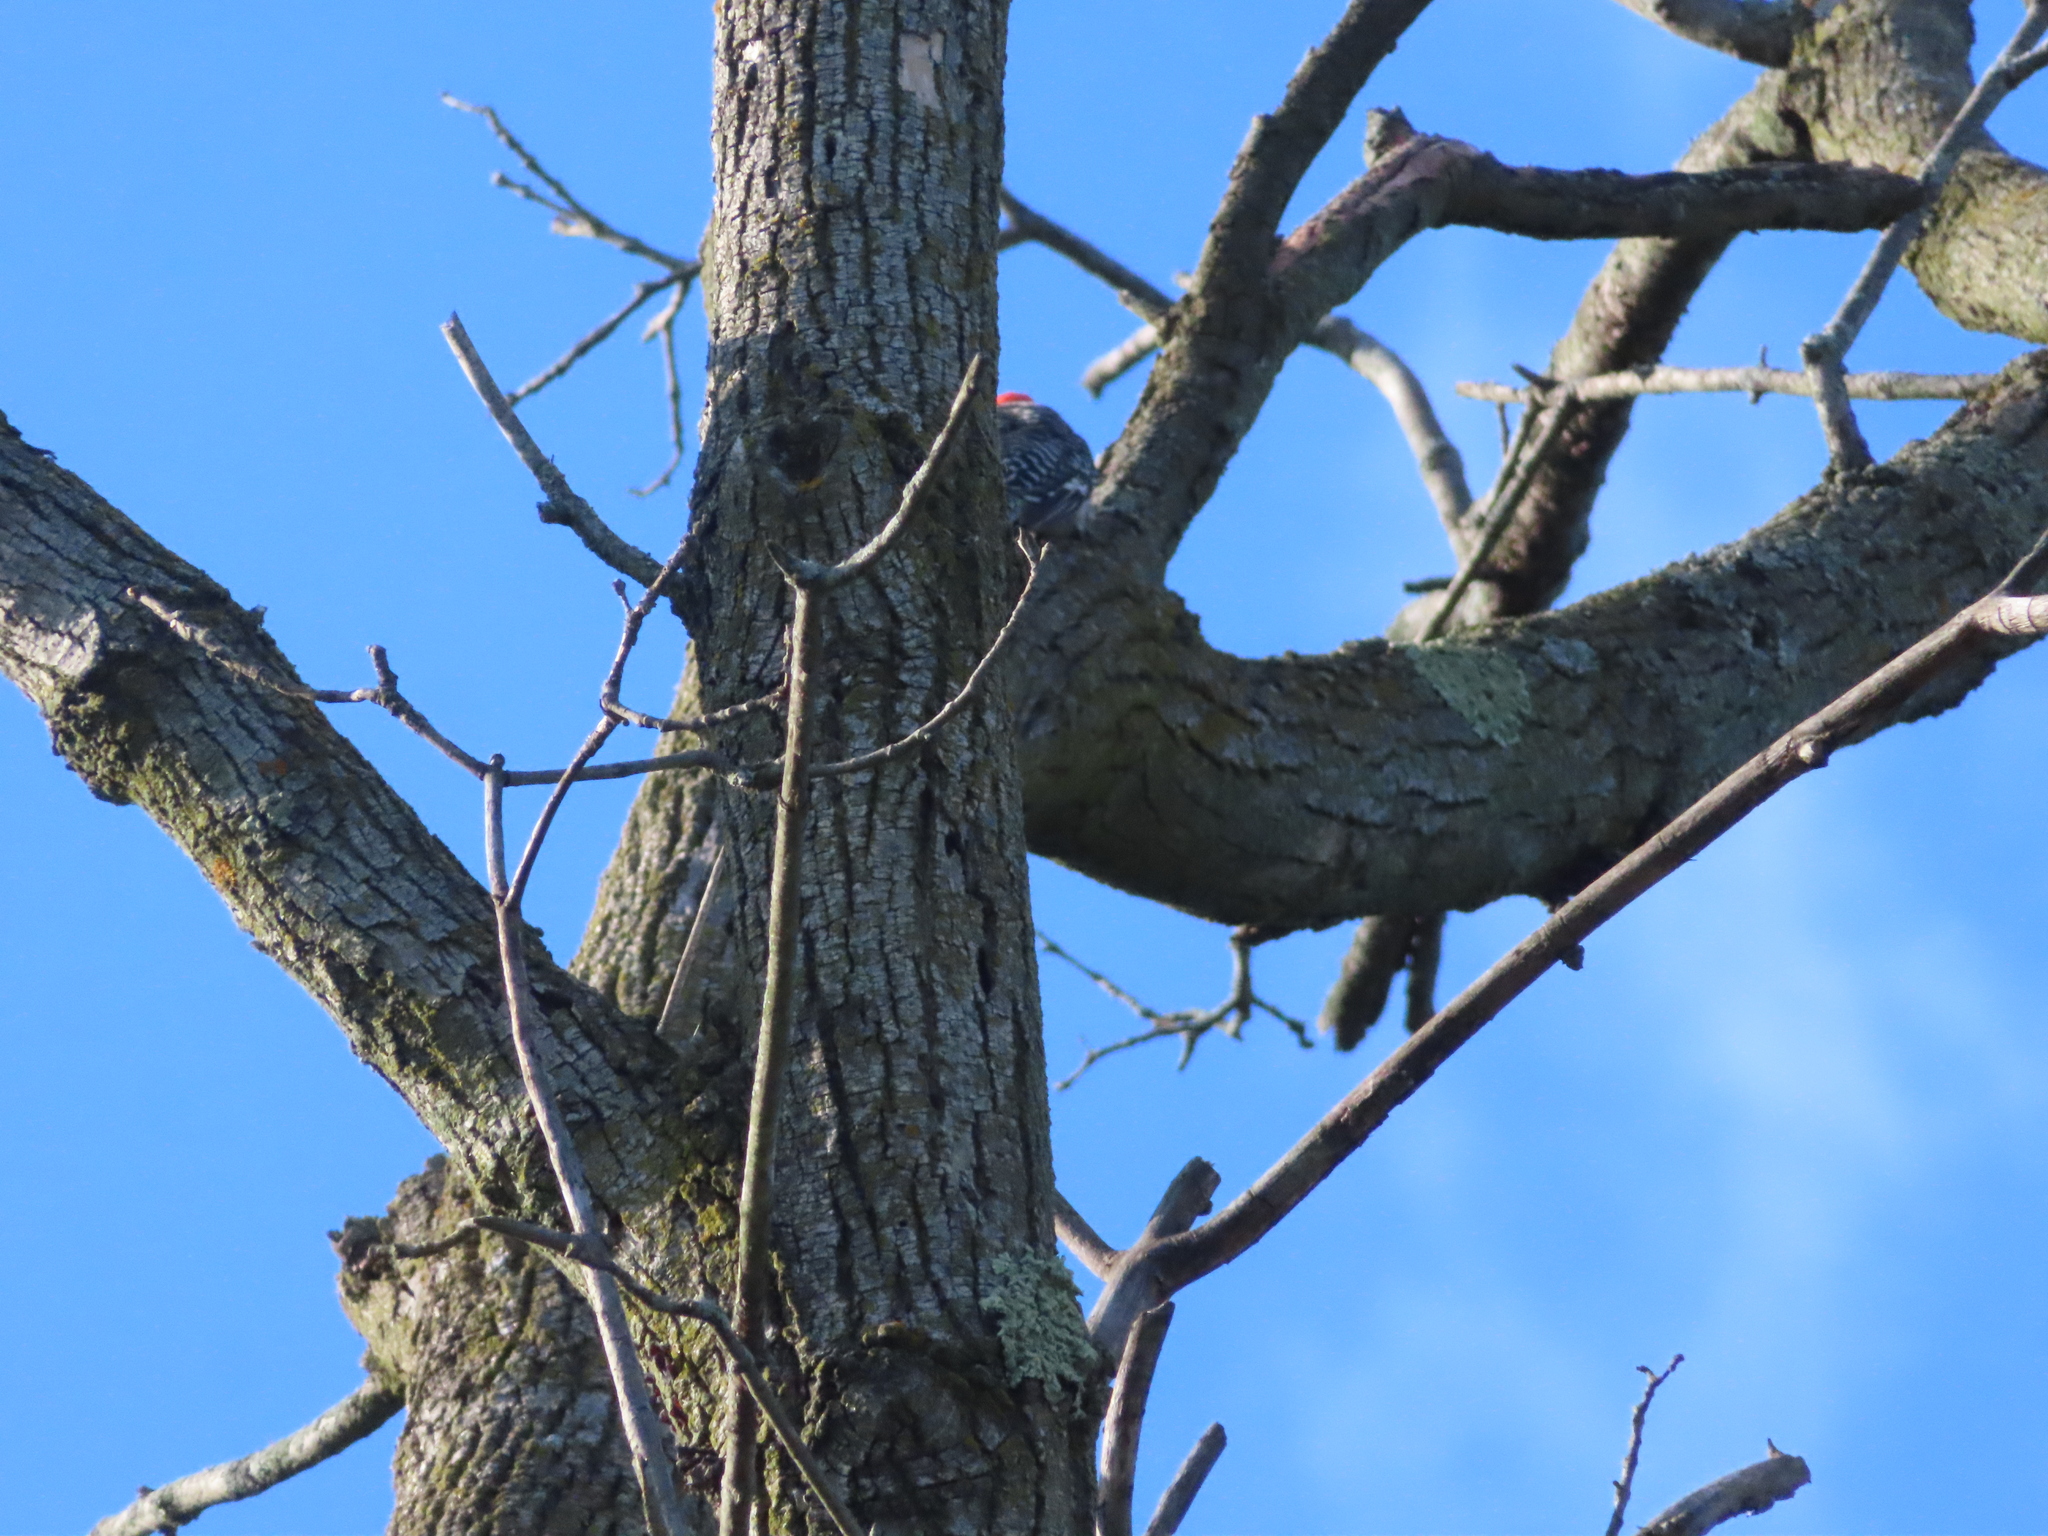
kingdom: Animalia
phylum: Chordata
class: Aves
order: Piciformes
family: Picidae
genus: Melanerpes
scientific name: Melanerpes carolinus
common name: Red-bellied woodpecker
